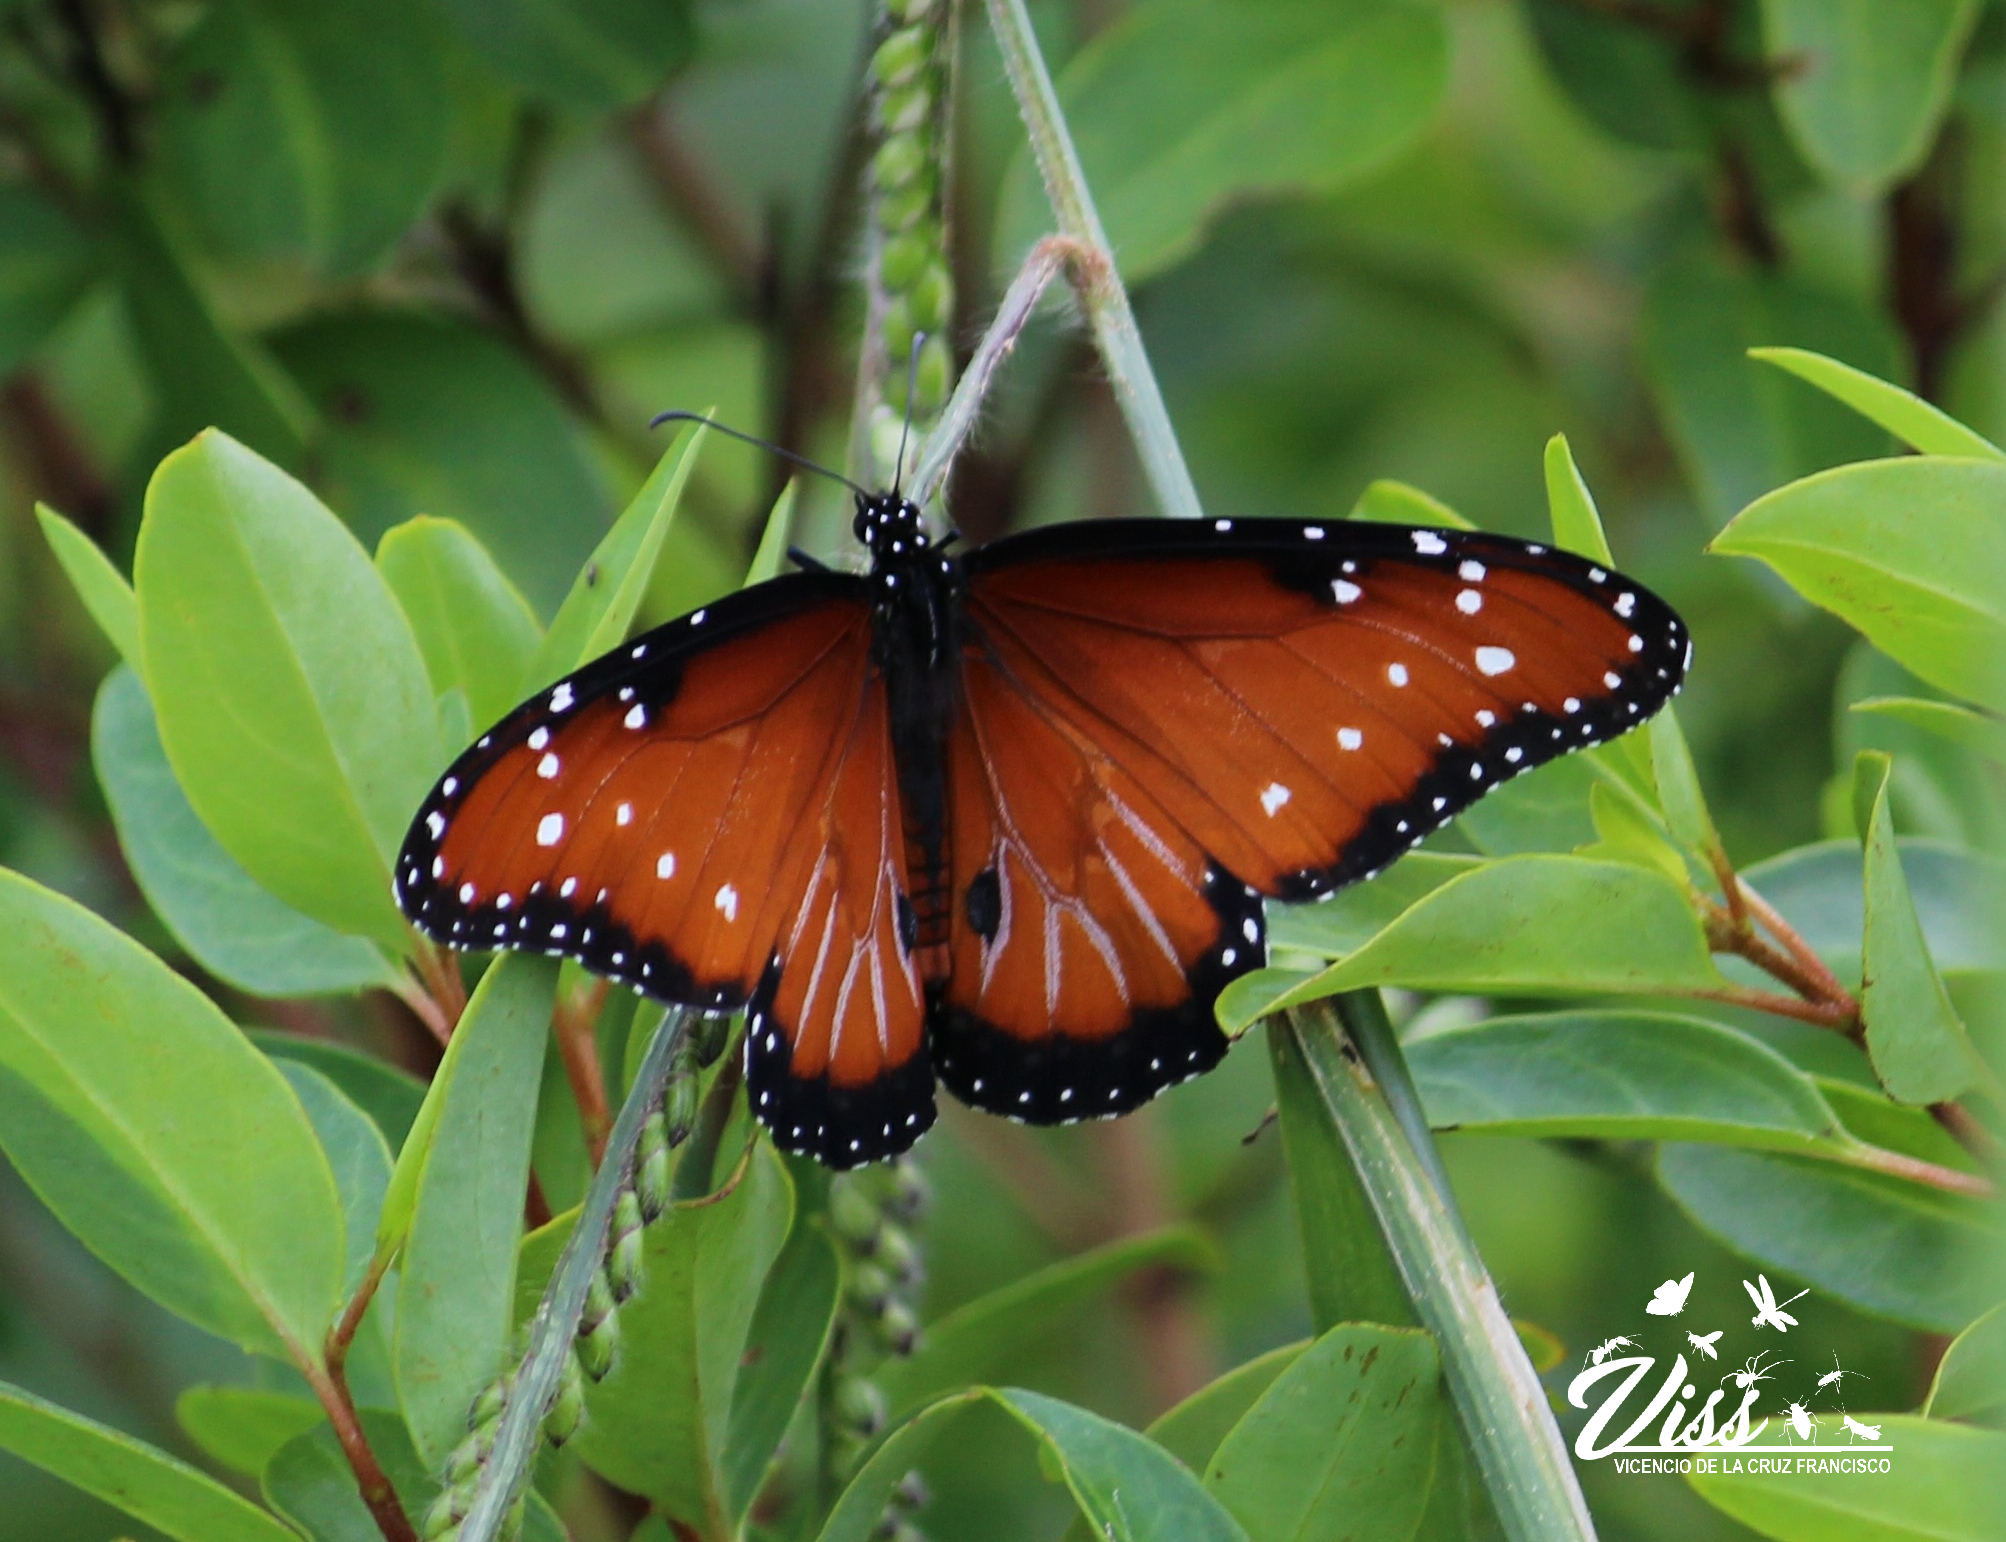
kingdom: Animalia
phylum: Arthropoda
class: Insecta
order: Lepidoptera
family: Nymphalidae
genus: Danaus
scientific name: Danaus gilippus
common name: Queen
